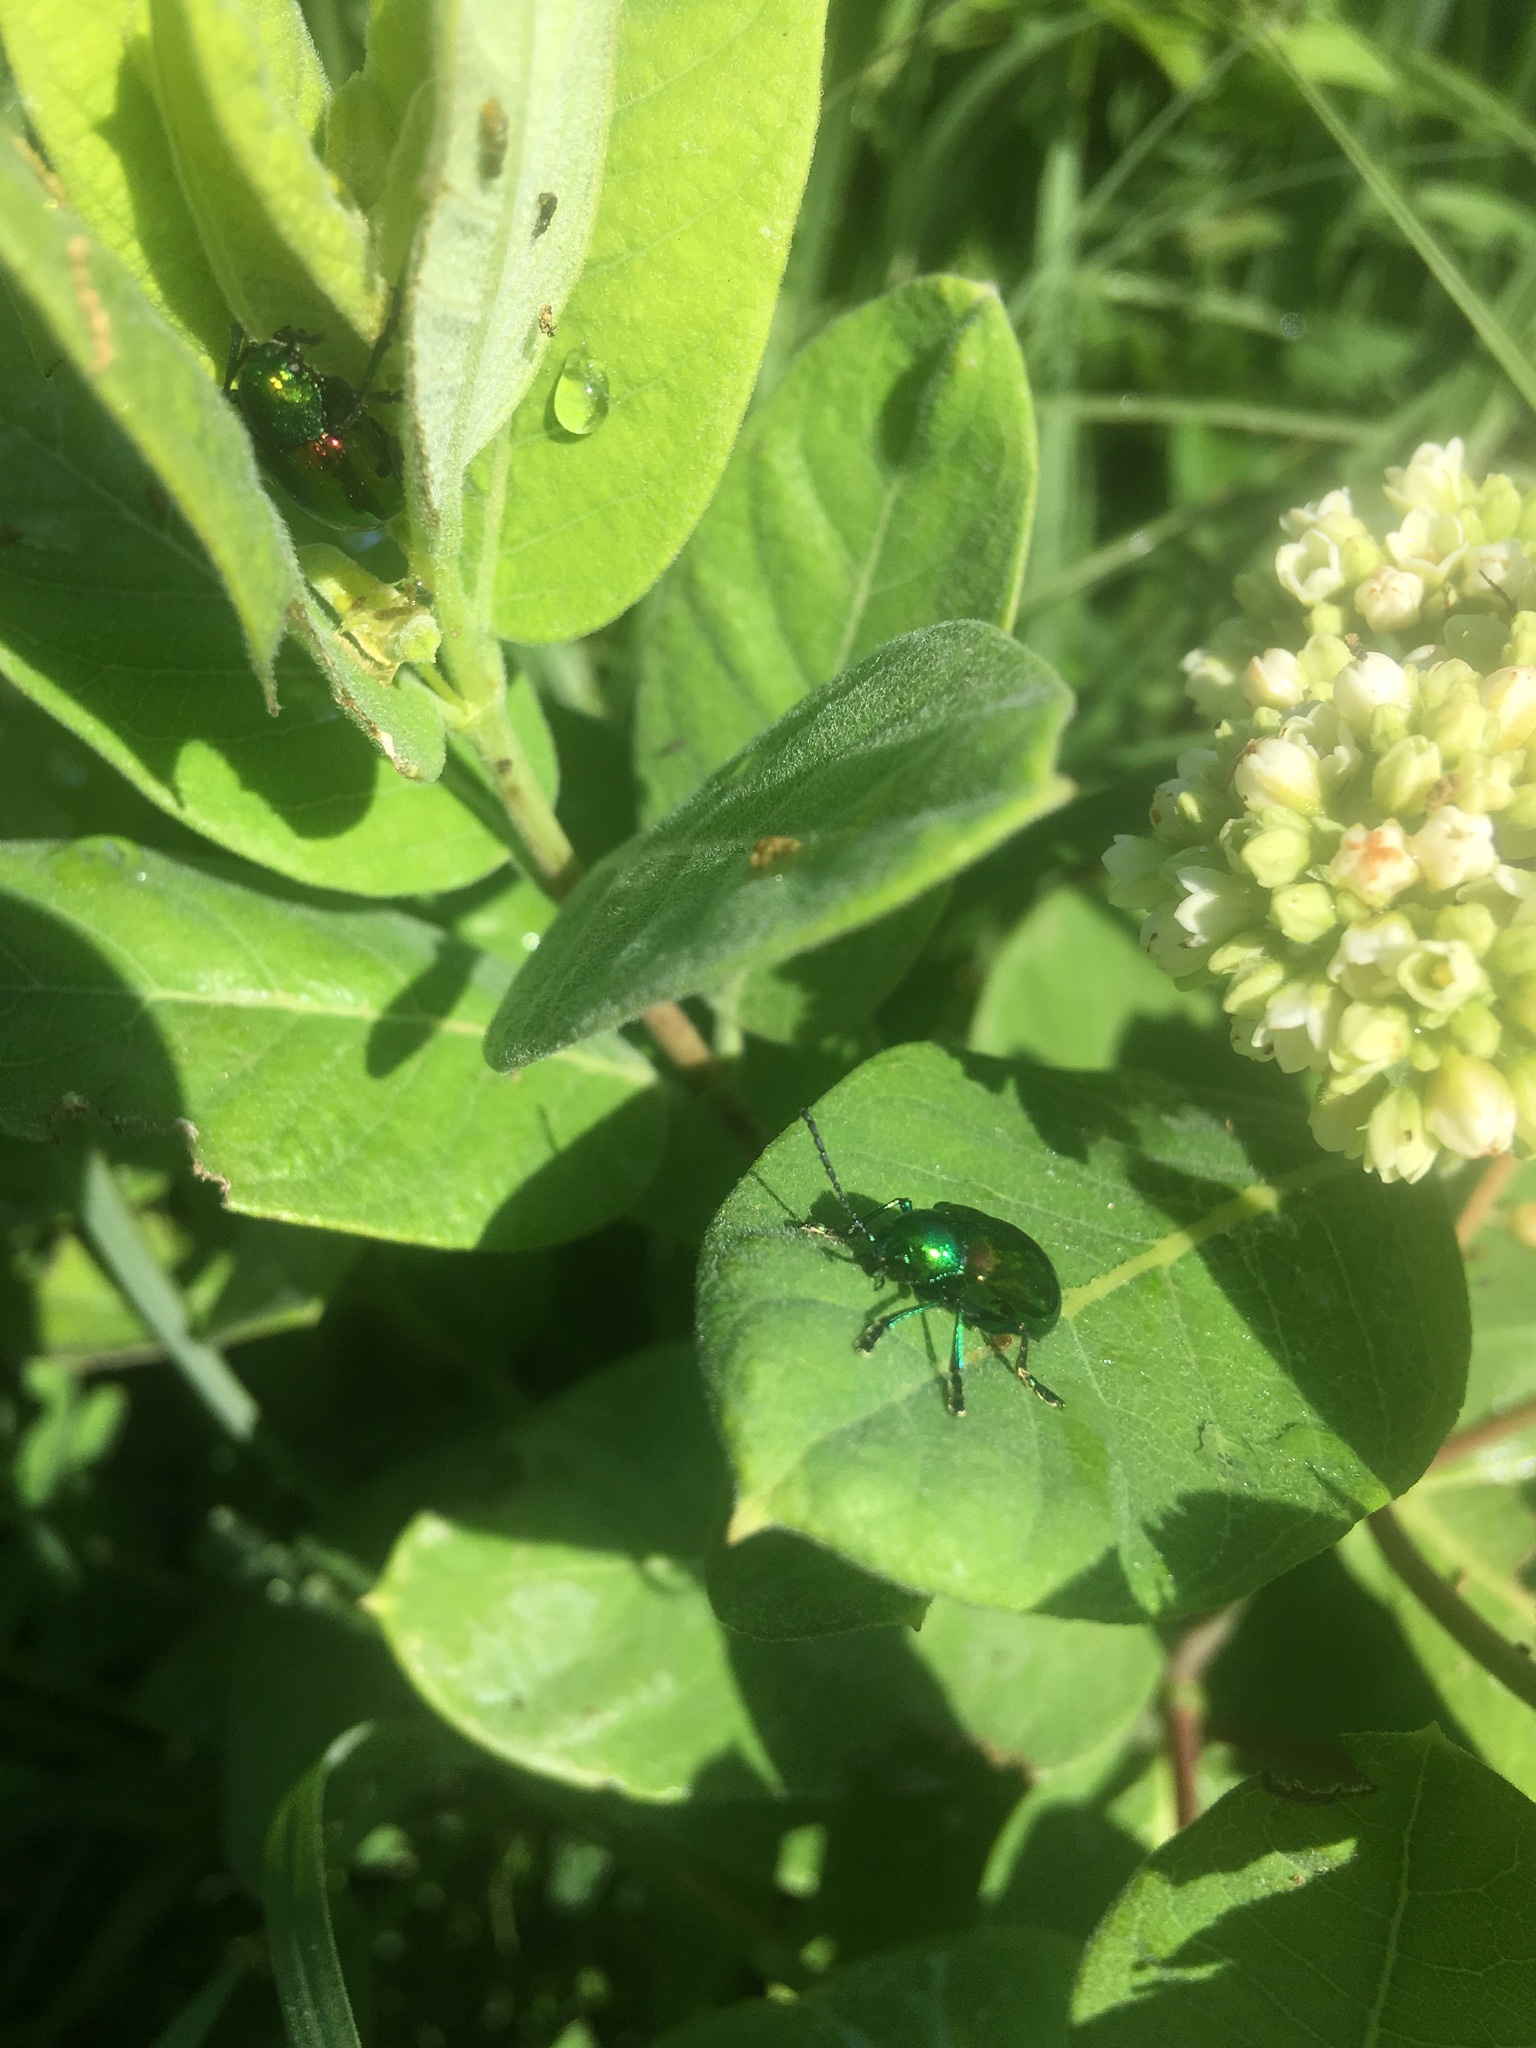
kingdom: Animalia
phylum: Arthropoda
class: Insecta
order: Coleoptera
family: Chrysomelidae
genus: Chrysochus
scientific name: Chrysochus auratus
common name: Dogbane leaf beetle
